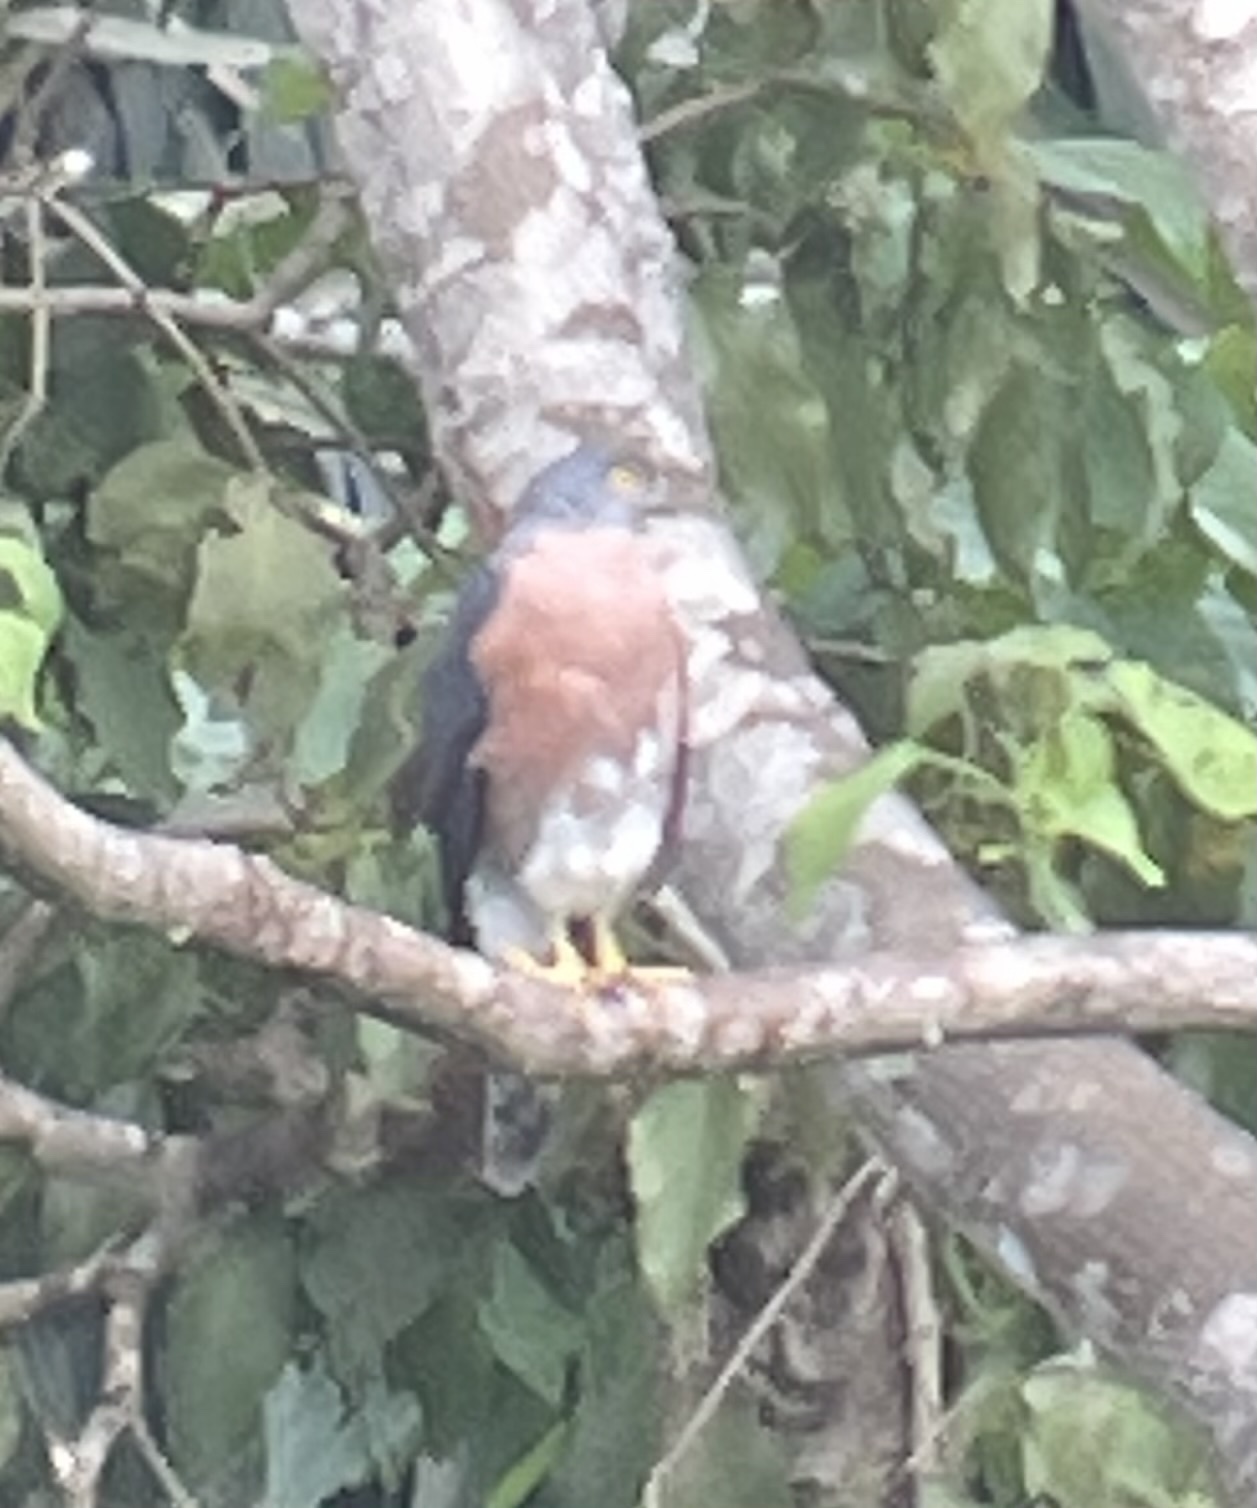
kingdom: Animalia
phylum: Chordata
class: Aves
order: Accipitriformes
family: Accipitridae
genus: Accipiter
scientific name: Accipiter soloensis
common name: Chinese sparrowhawk
